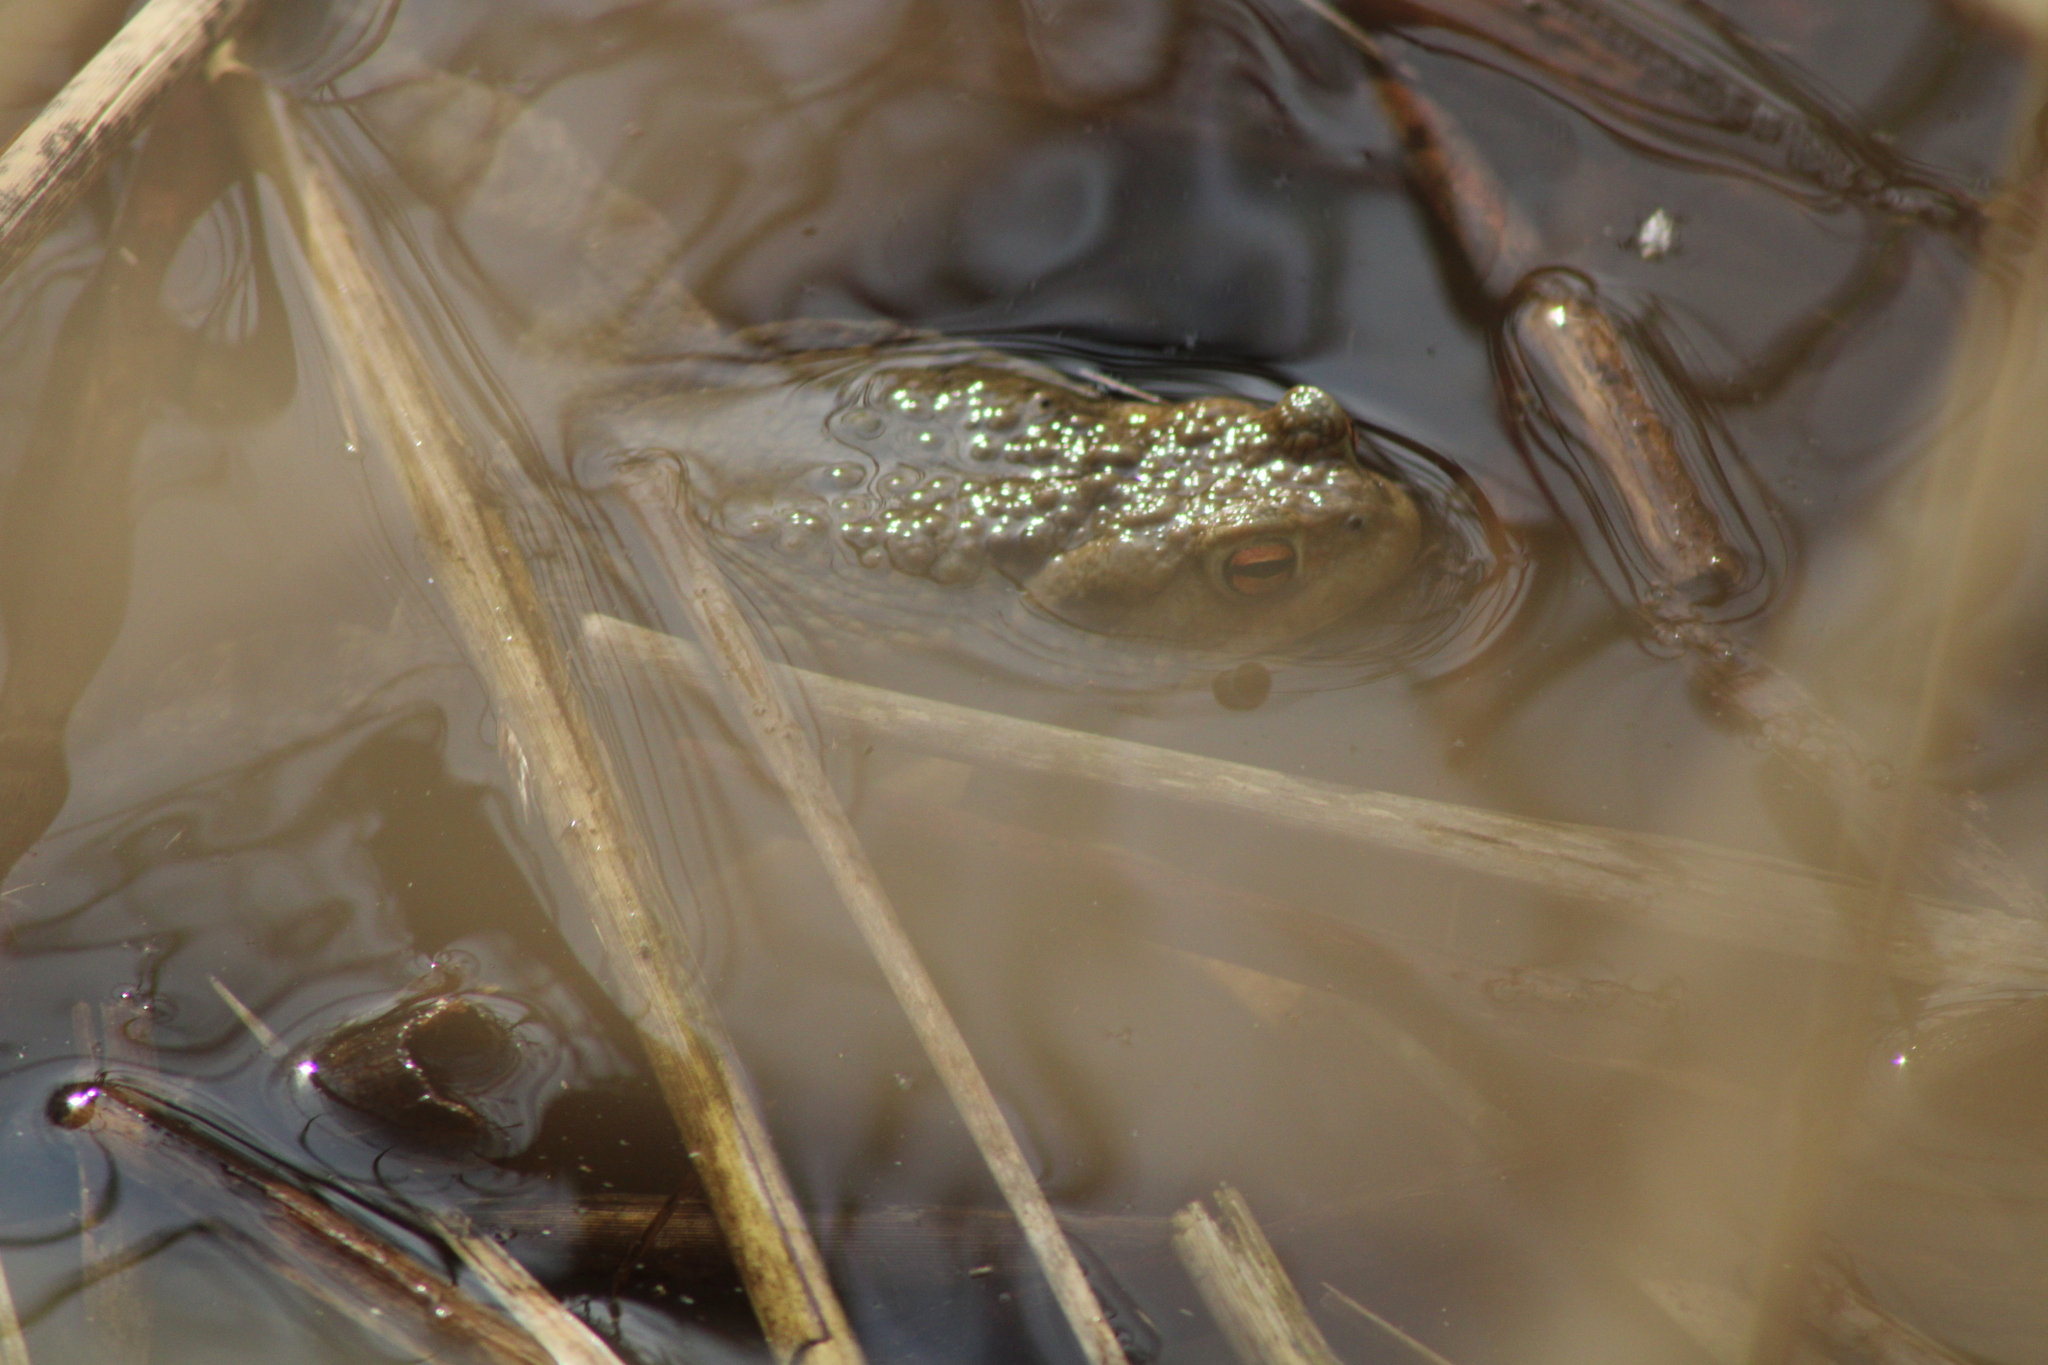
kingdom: Animalia
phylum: Chordata
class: Amphibia
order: Anura
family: Bufonidae
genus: Bufo
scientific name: Bufo bufo
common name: Common toad
